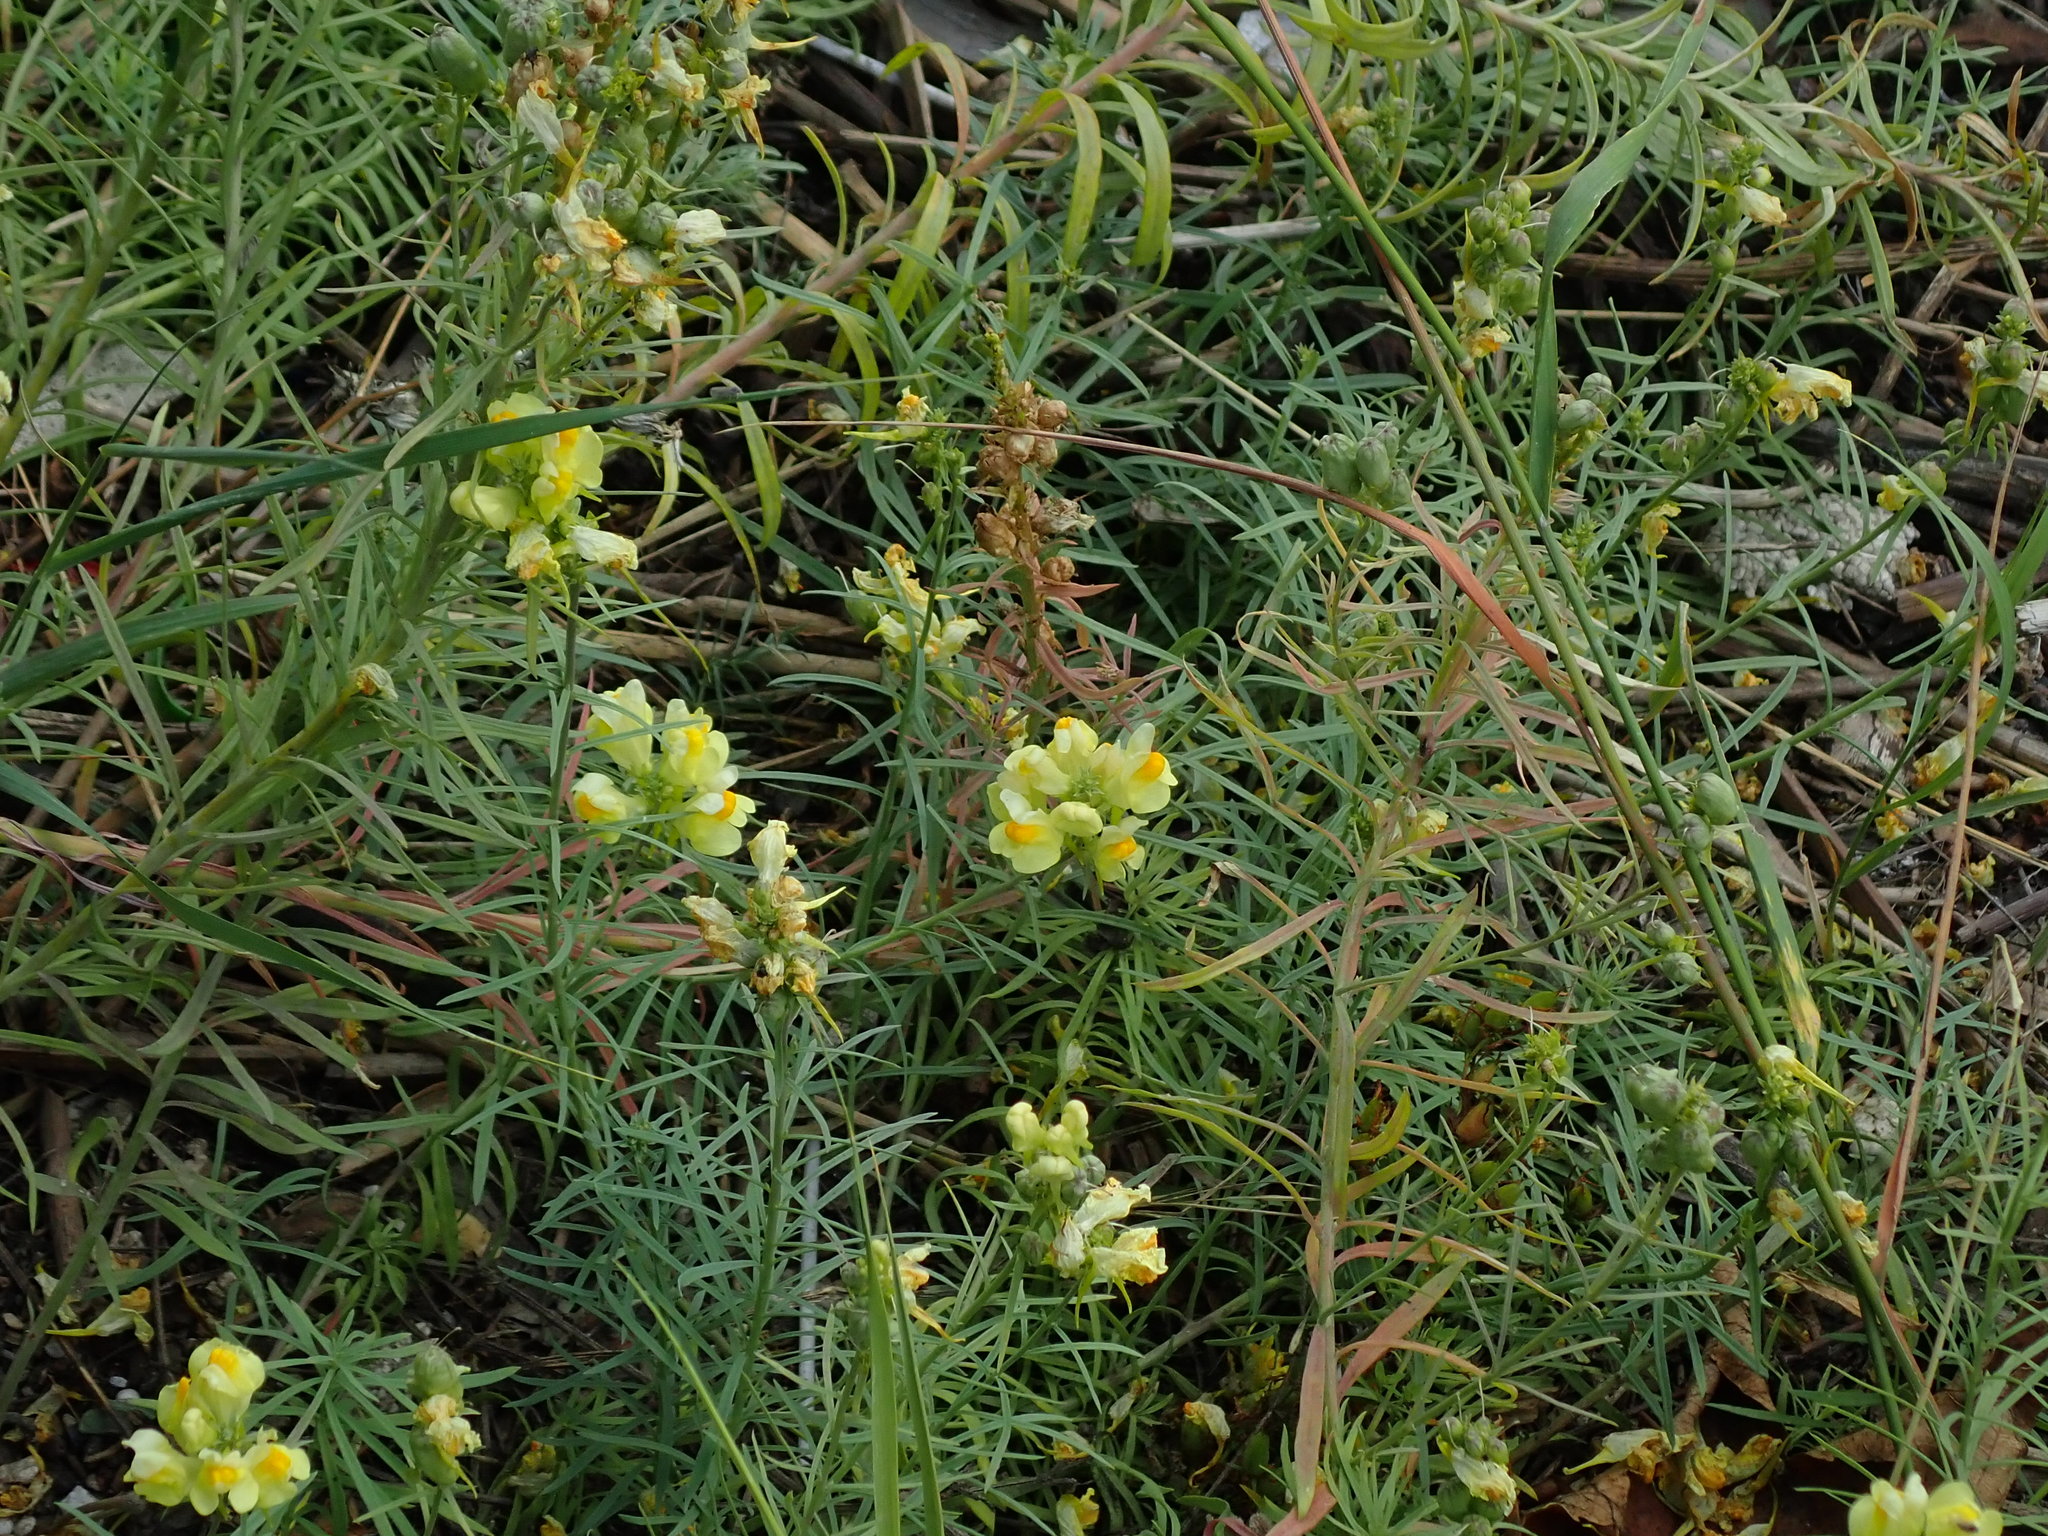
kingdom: Plantae
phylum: Tracheophyta
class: Magnoliopsida
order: Lamiales
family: Plantaginaceae
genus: Linaria
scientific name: Linaria vulgaris
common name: Butter and eggs
